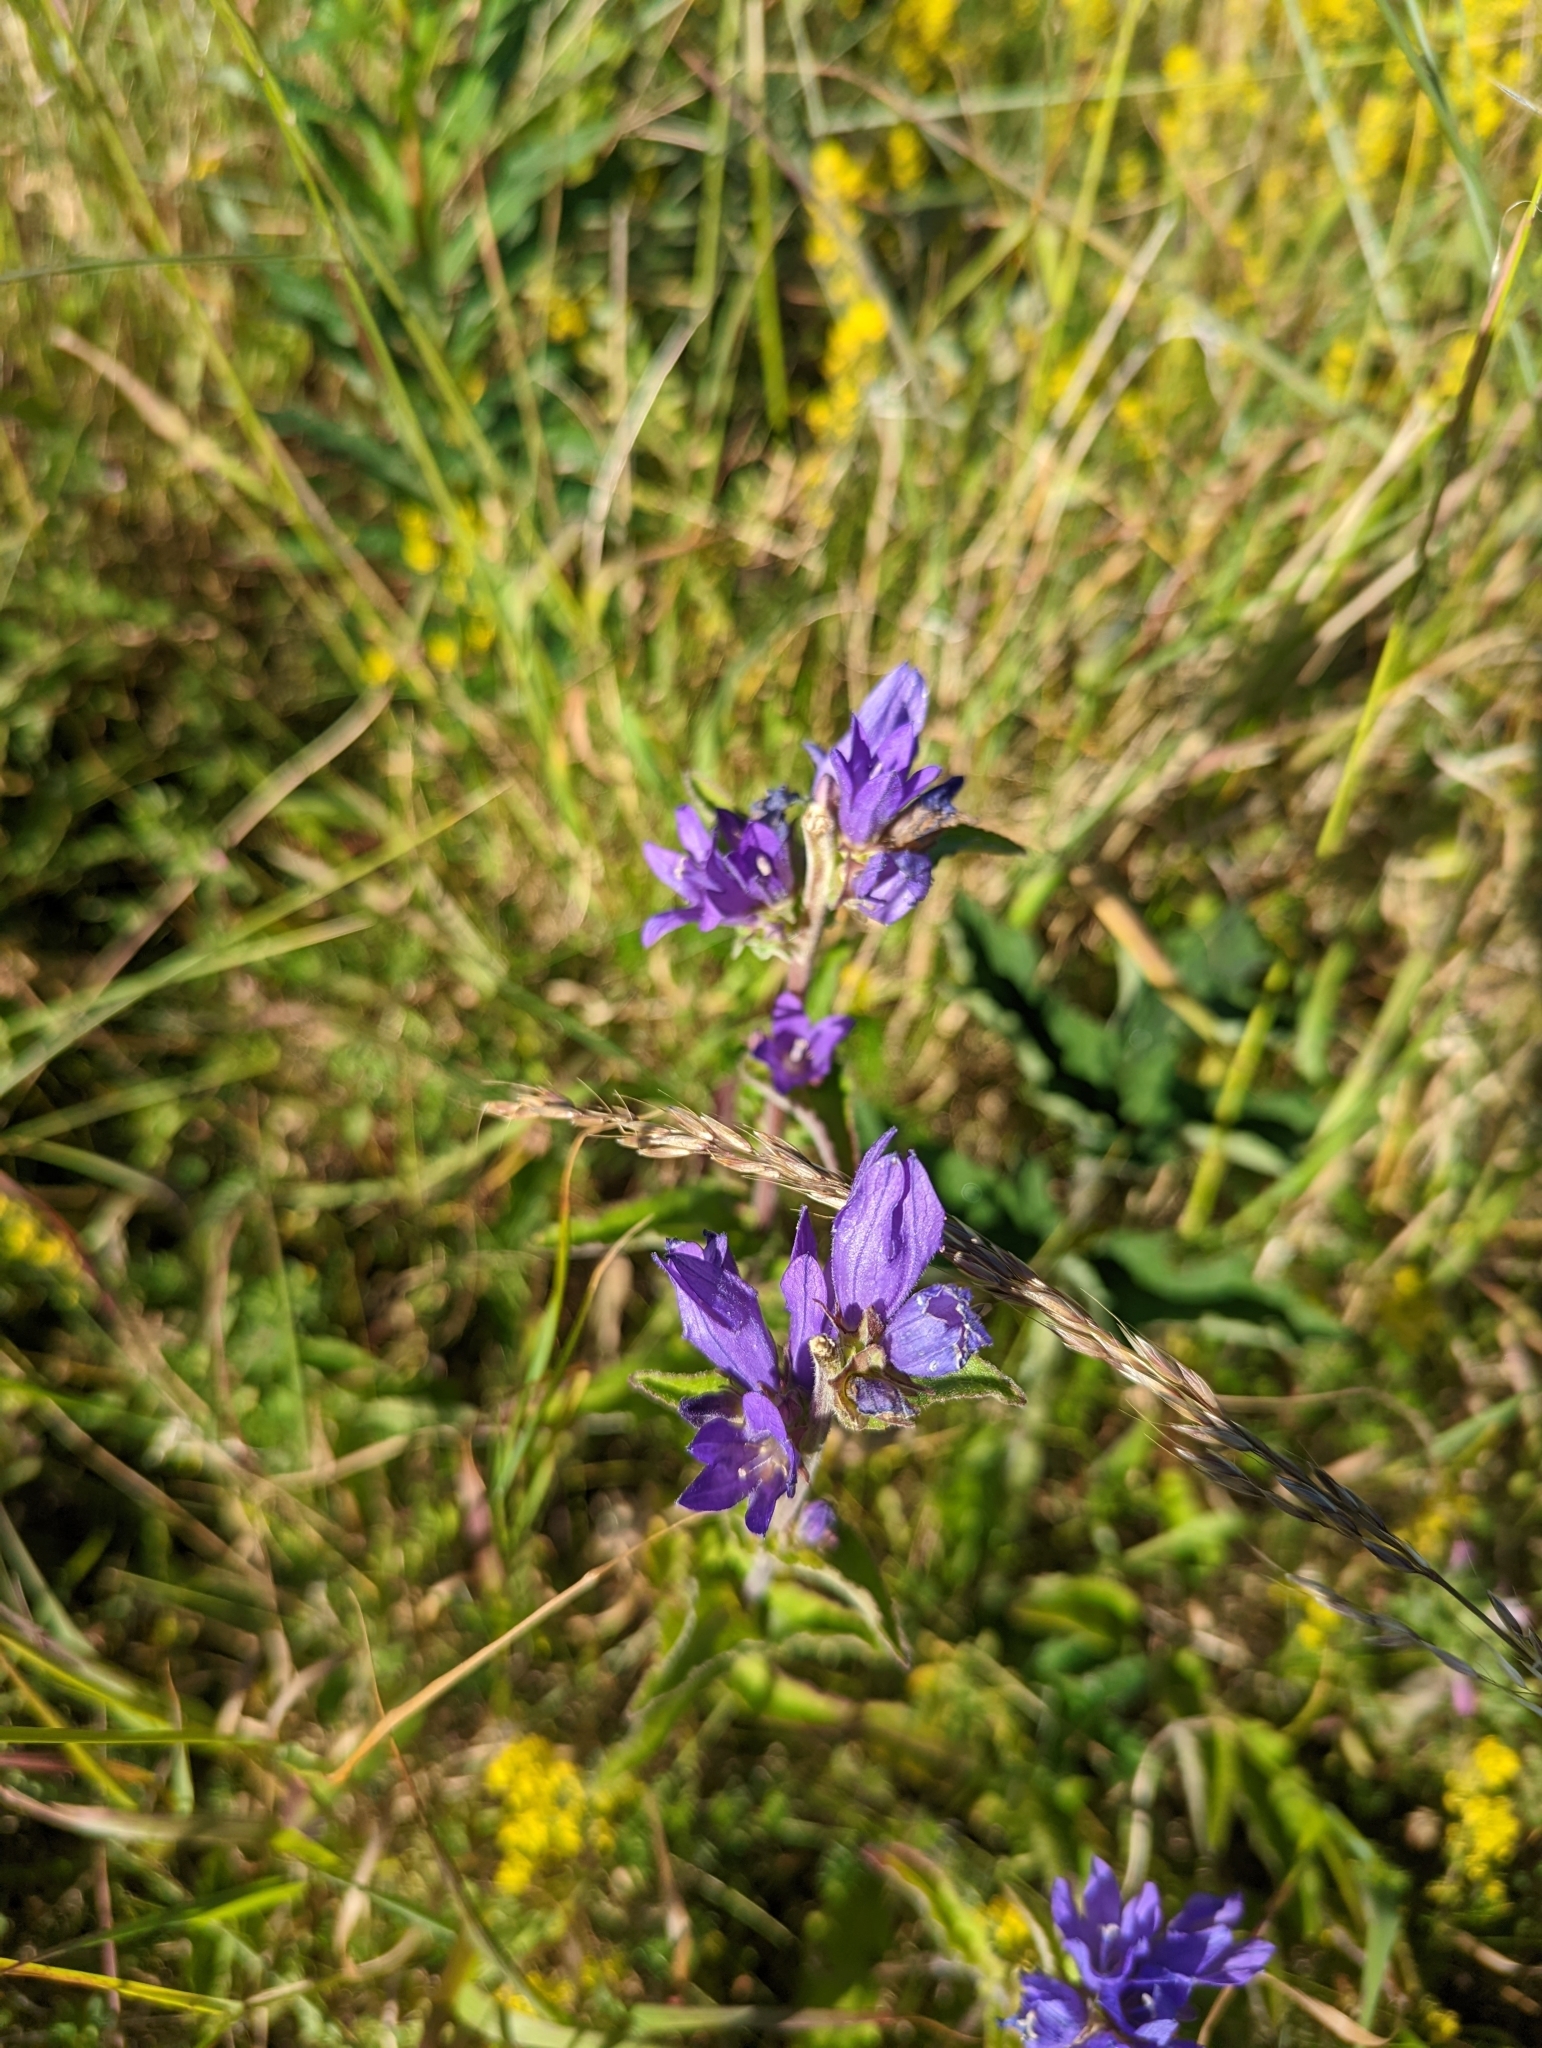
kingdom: Plantae
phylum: Tracheophyta
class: Magnoliopsida
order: Asterales
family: Campanulaceae
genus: Campanula
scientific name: Campanula glomerata
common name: Clustered bellflower
